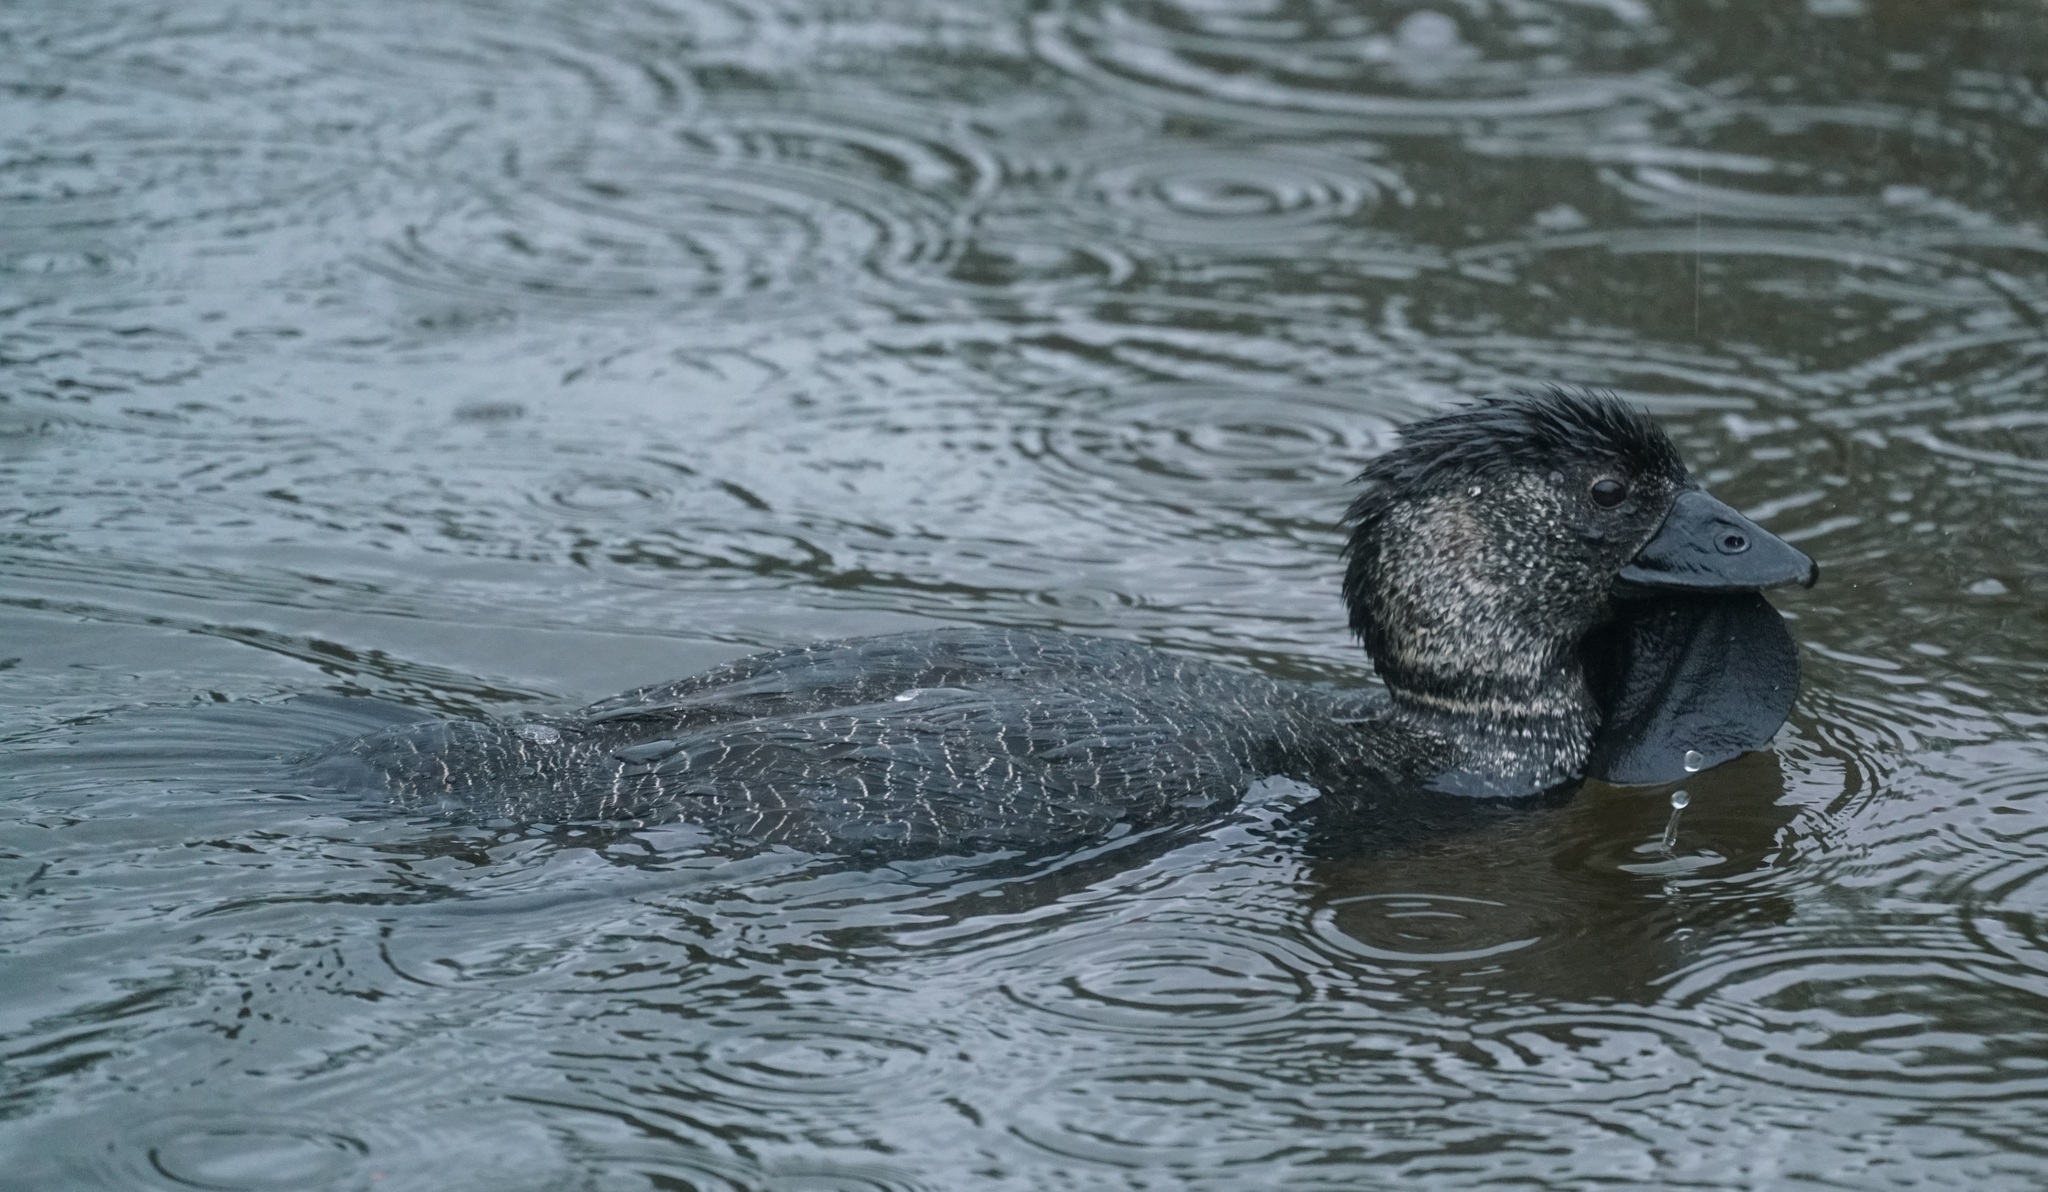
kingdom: Animalia
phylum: Chordata
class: Aves
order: Anseriformes
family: Anatidae
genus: Biziura
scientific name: Biziura lobata
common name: Musk duck
